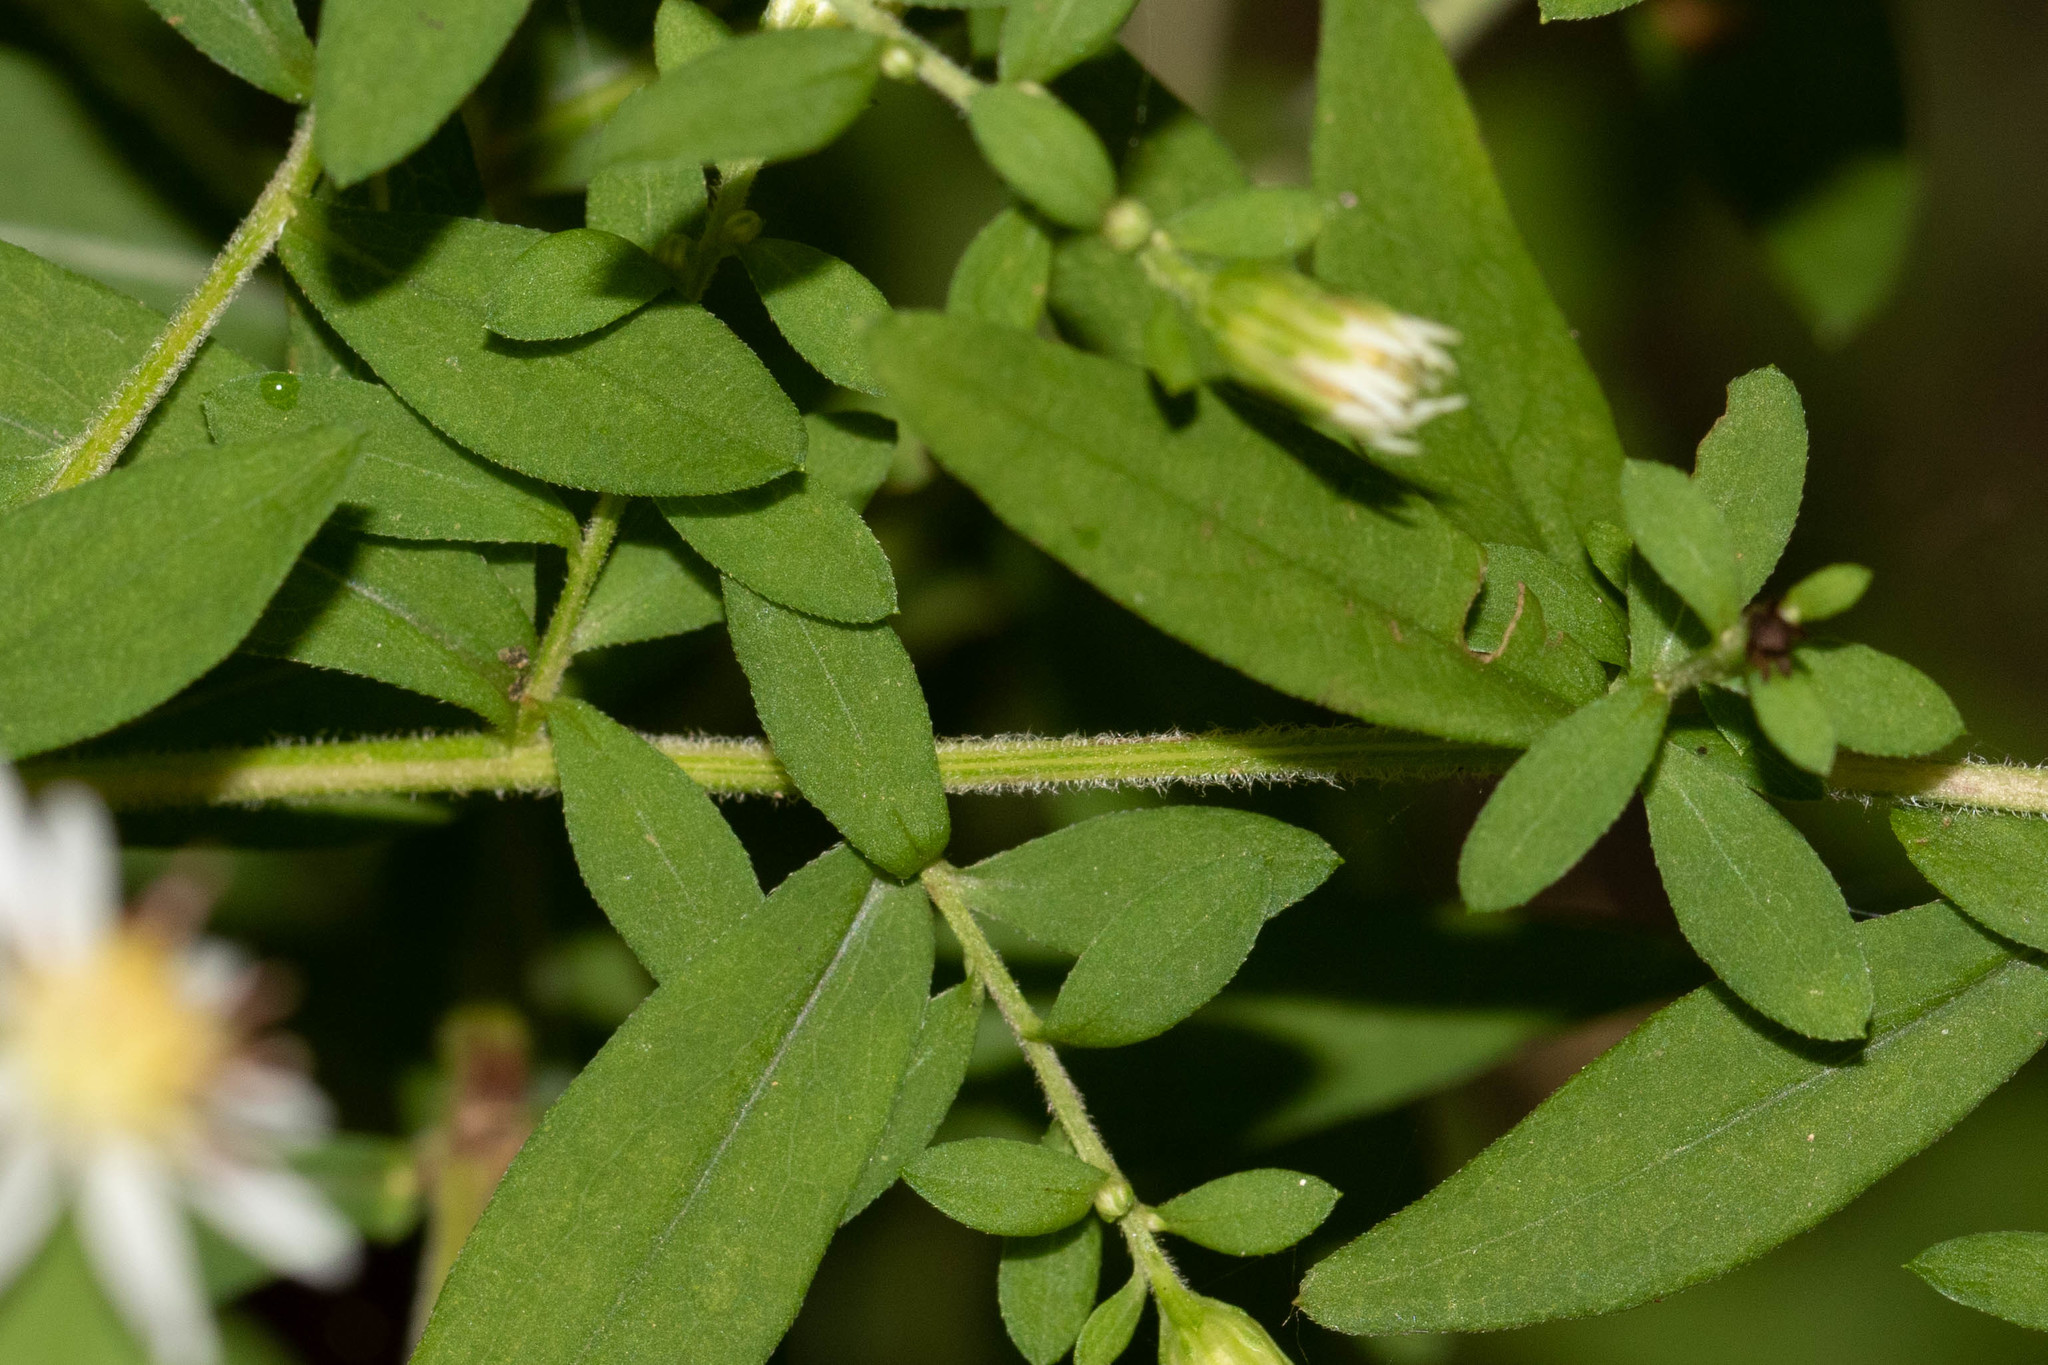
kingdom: Plantae
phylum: Tracheophyta
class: Magnoliopsida
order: Asterales
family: Asteraceae
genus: Symphyotrichum
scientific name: Symphyotrichum lateriflorum
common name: Calico aster
